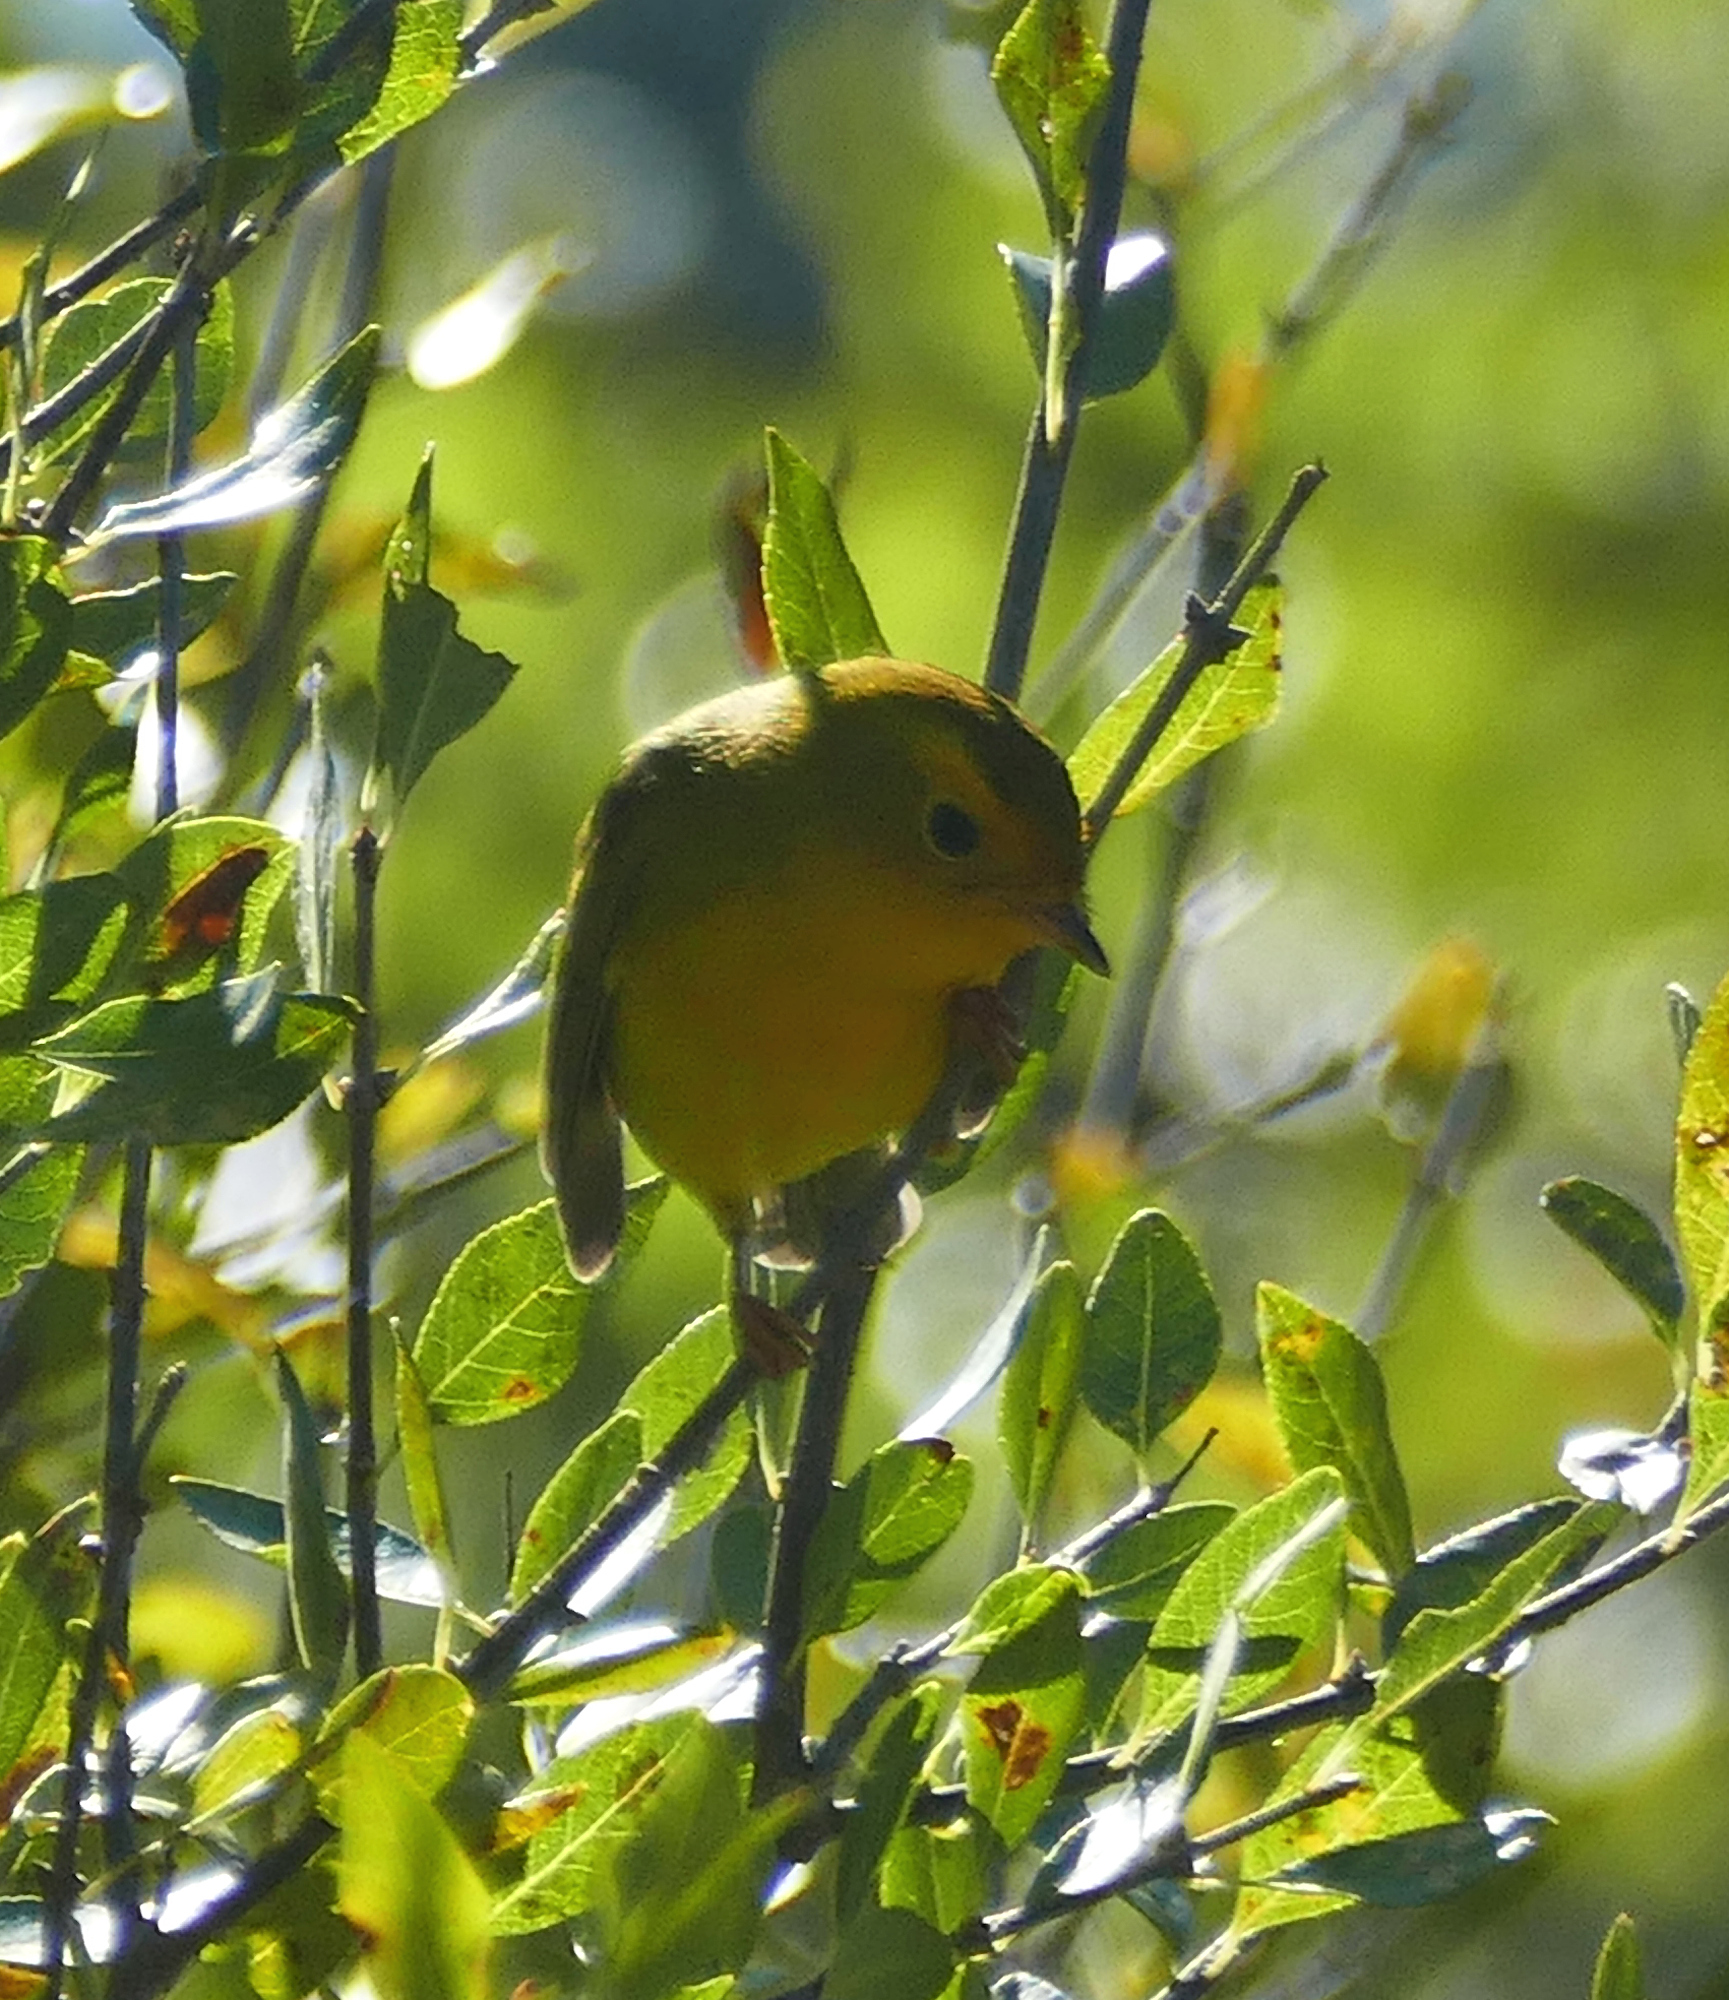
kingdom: Animalia
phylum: Chordata
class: Aves
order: Passeriformes
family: Parulidae
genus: Cardellina
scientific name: Cardellina pusilla
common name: Wilson's warbler
